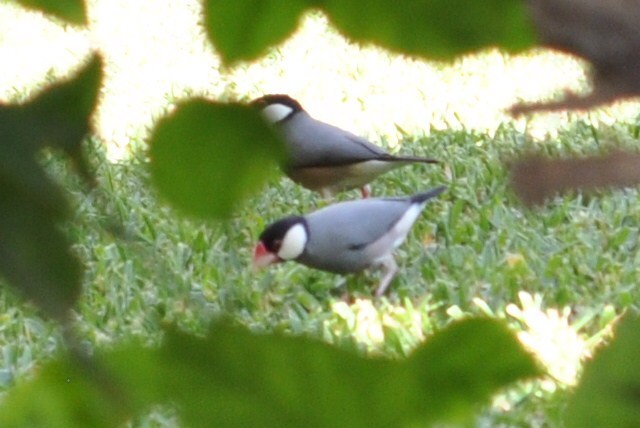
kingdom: Animalia
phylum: Chordata
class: Aves
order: Passeriformes
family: Estrildidae
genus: Lonchura
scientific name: Lonchura oryzivora
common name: Java sparrow
